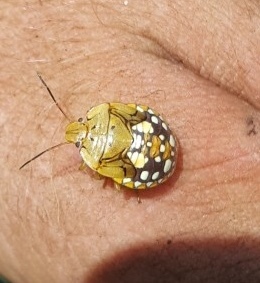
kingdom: Animalia
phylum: Arthropoda
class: Insecta
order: Hemiptera
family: Pentatomidae
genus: Acrosternum
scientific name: Acrosternum marginatum
